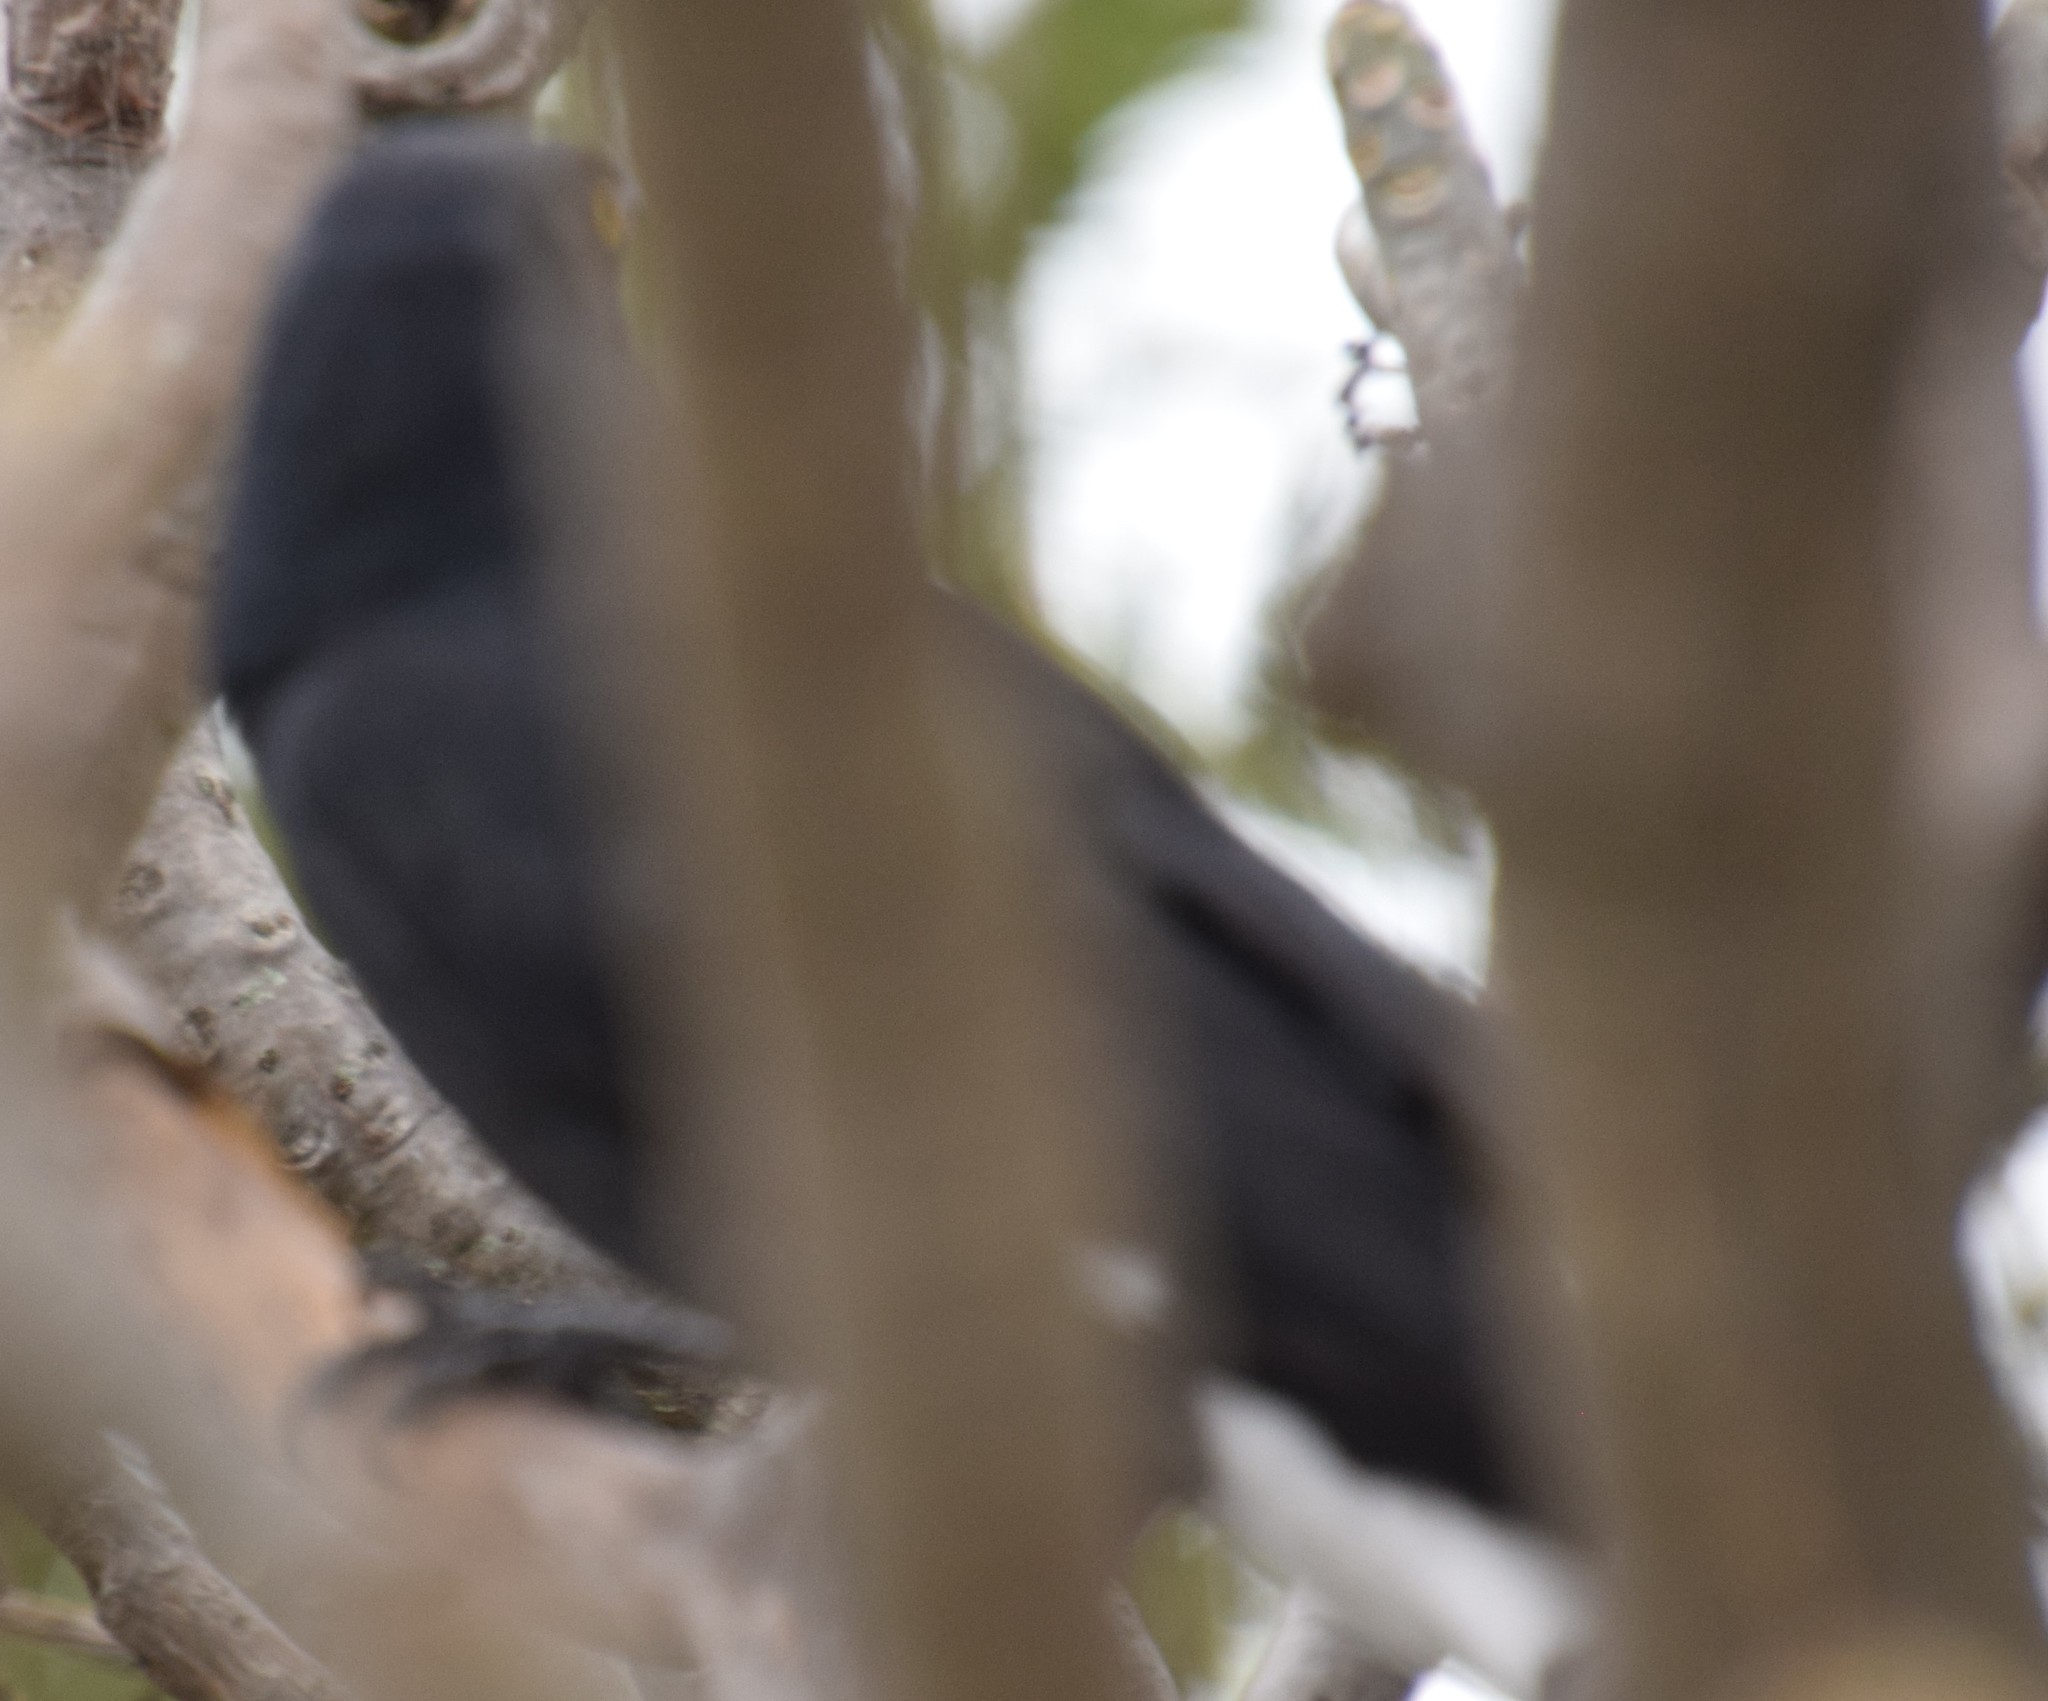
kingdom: Animalia
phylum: Chordata
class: Aves
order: Passeriformes
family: Cracticidae
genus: Strepera
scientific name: Strepera graculina
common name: Pied currawong
